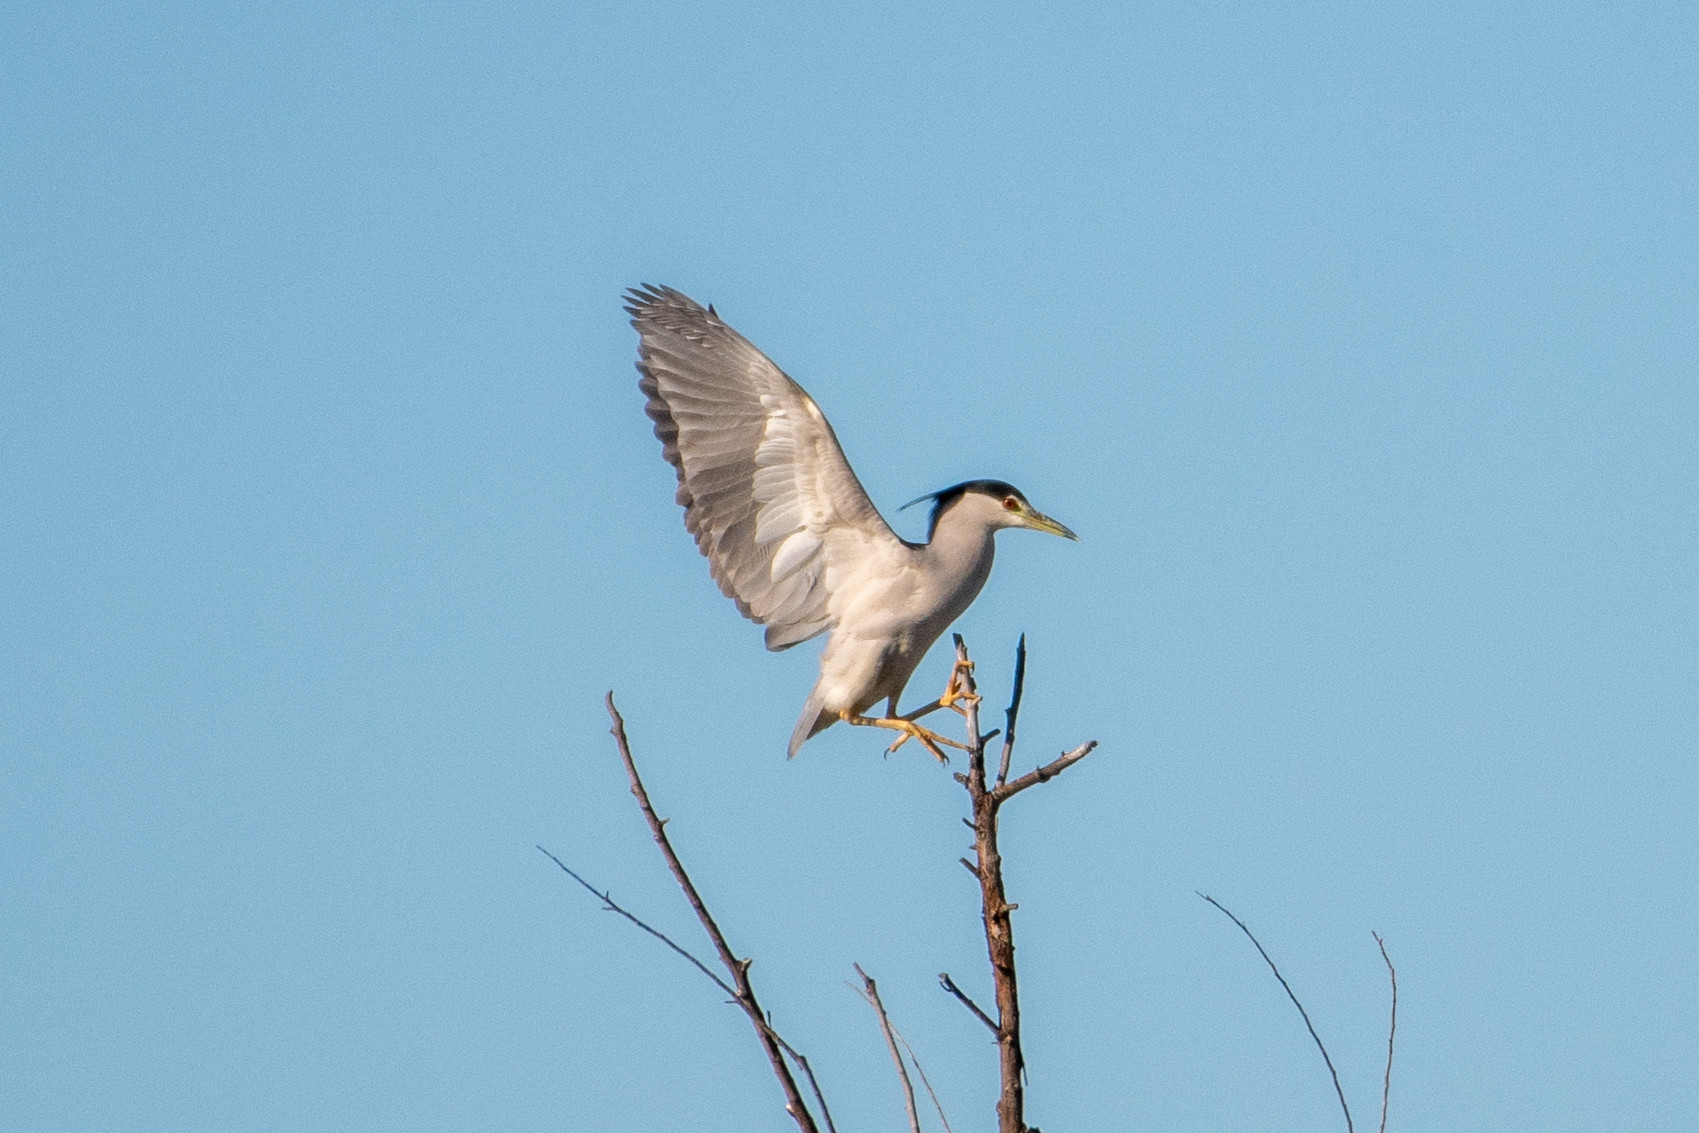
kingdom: Animalia
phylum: Chordata
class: Aves
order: Pelecaniformes
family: Ardeidae
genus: Nycticorax
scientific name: Nycticorax nycticorax
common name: Black-crowned night heron
